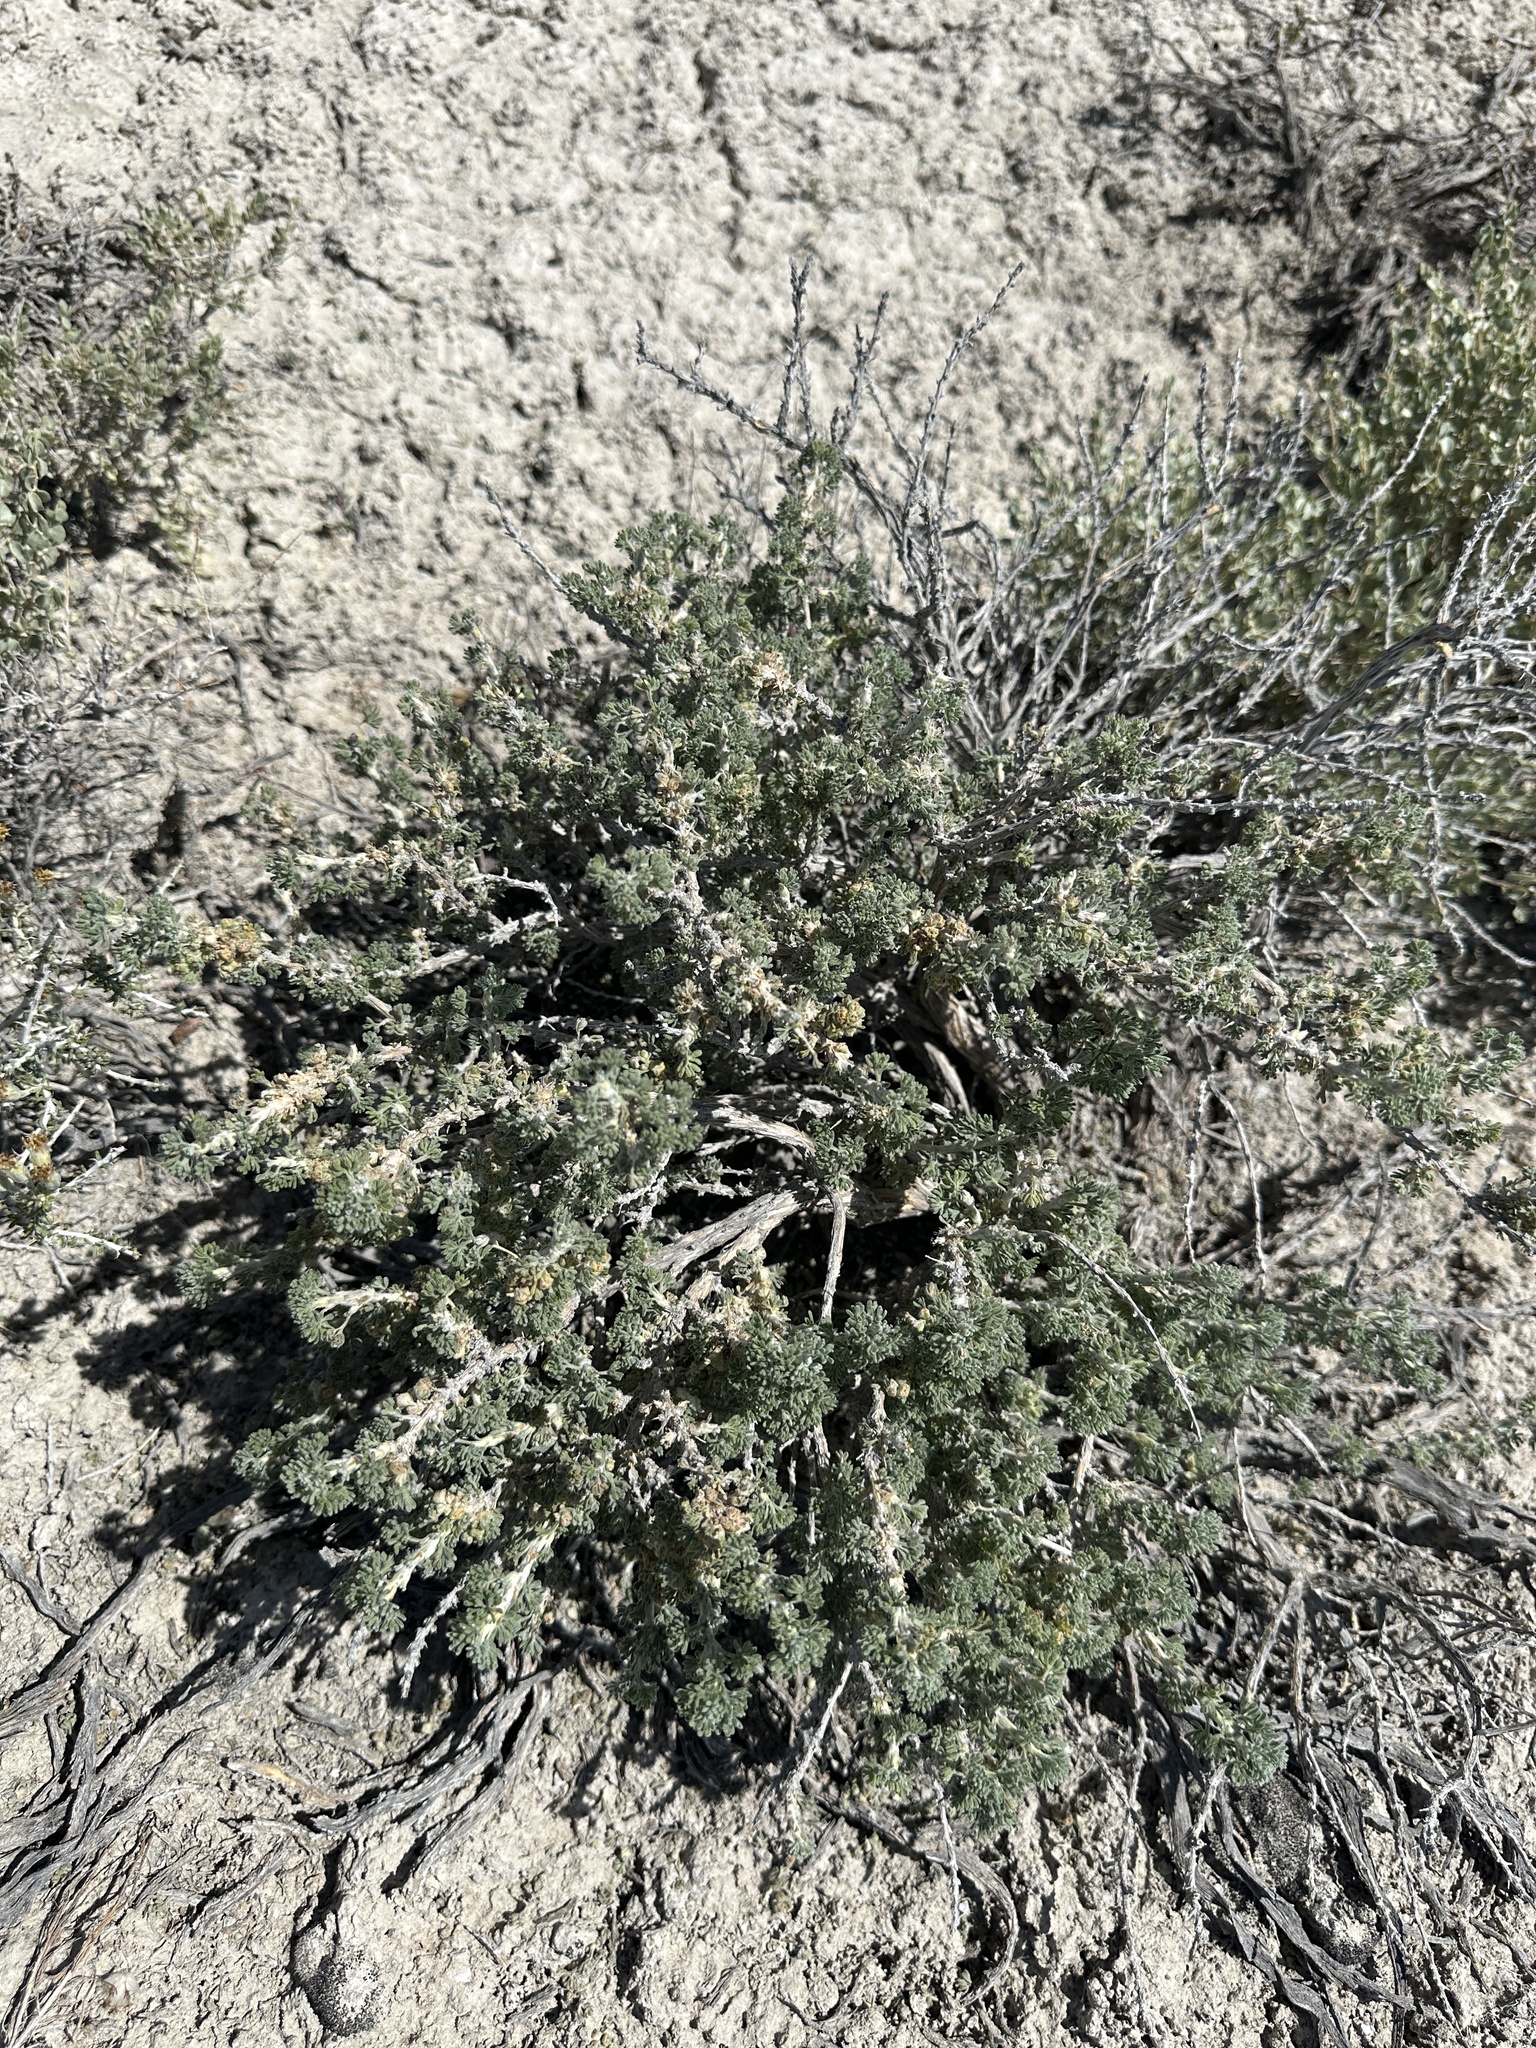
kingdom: Plantae
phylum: Tracheophyta
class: Magnoliopsida
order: Asterales
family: Asteraceae
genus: Artemisia
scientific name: Artemisia spinescens
